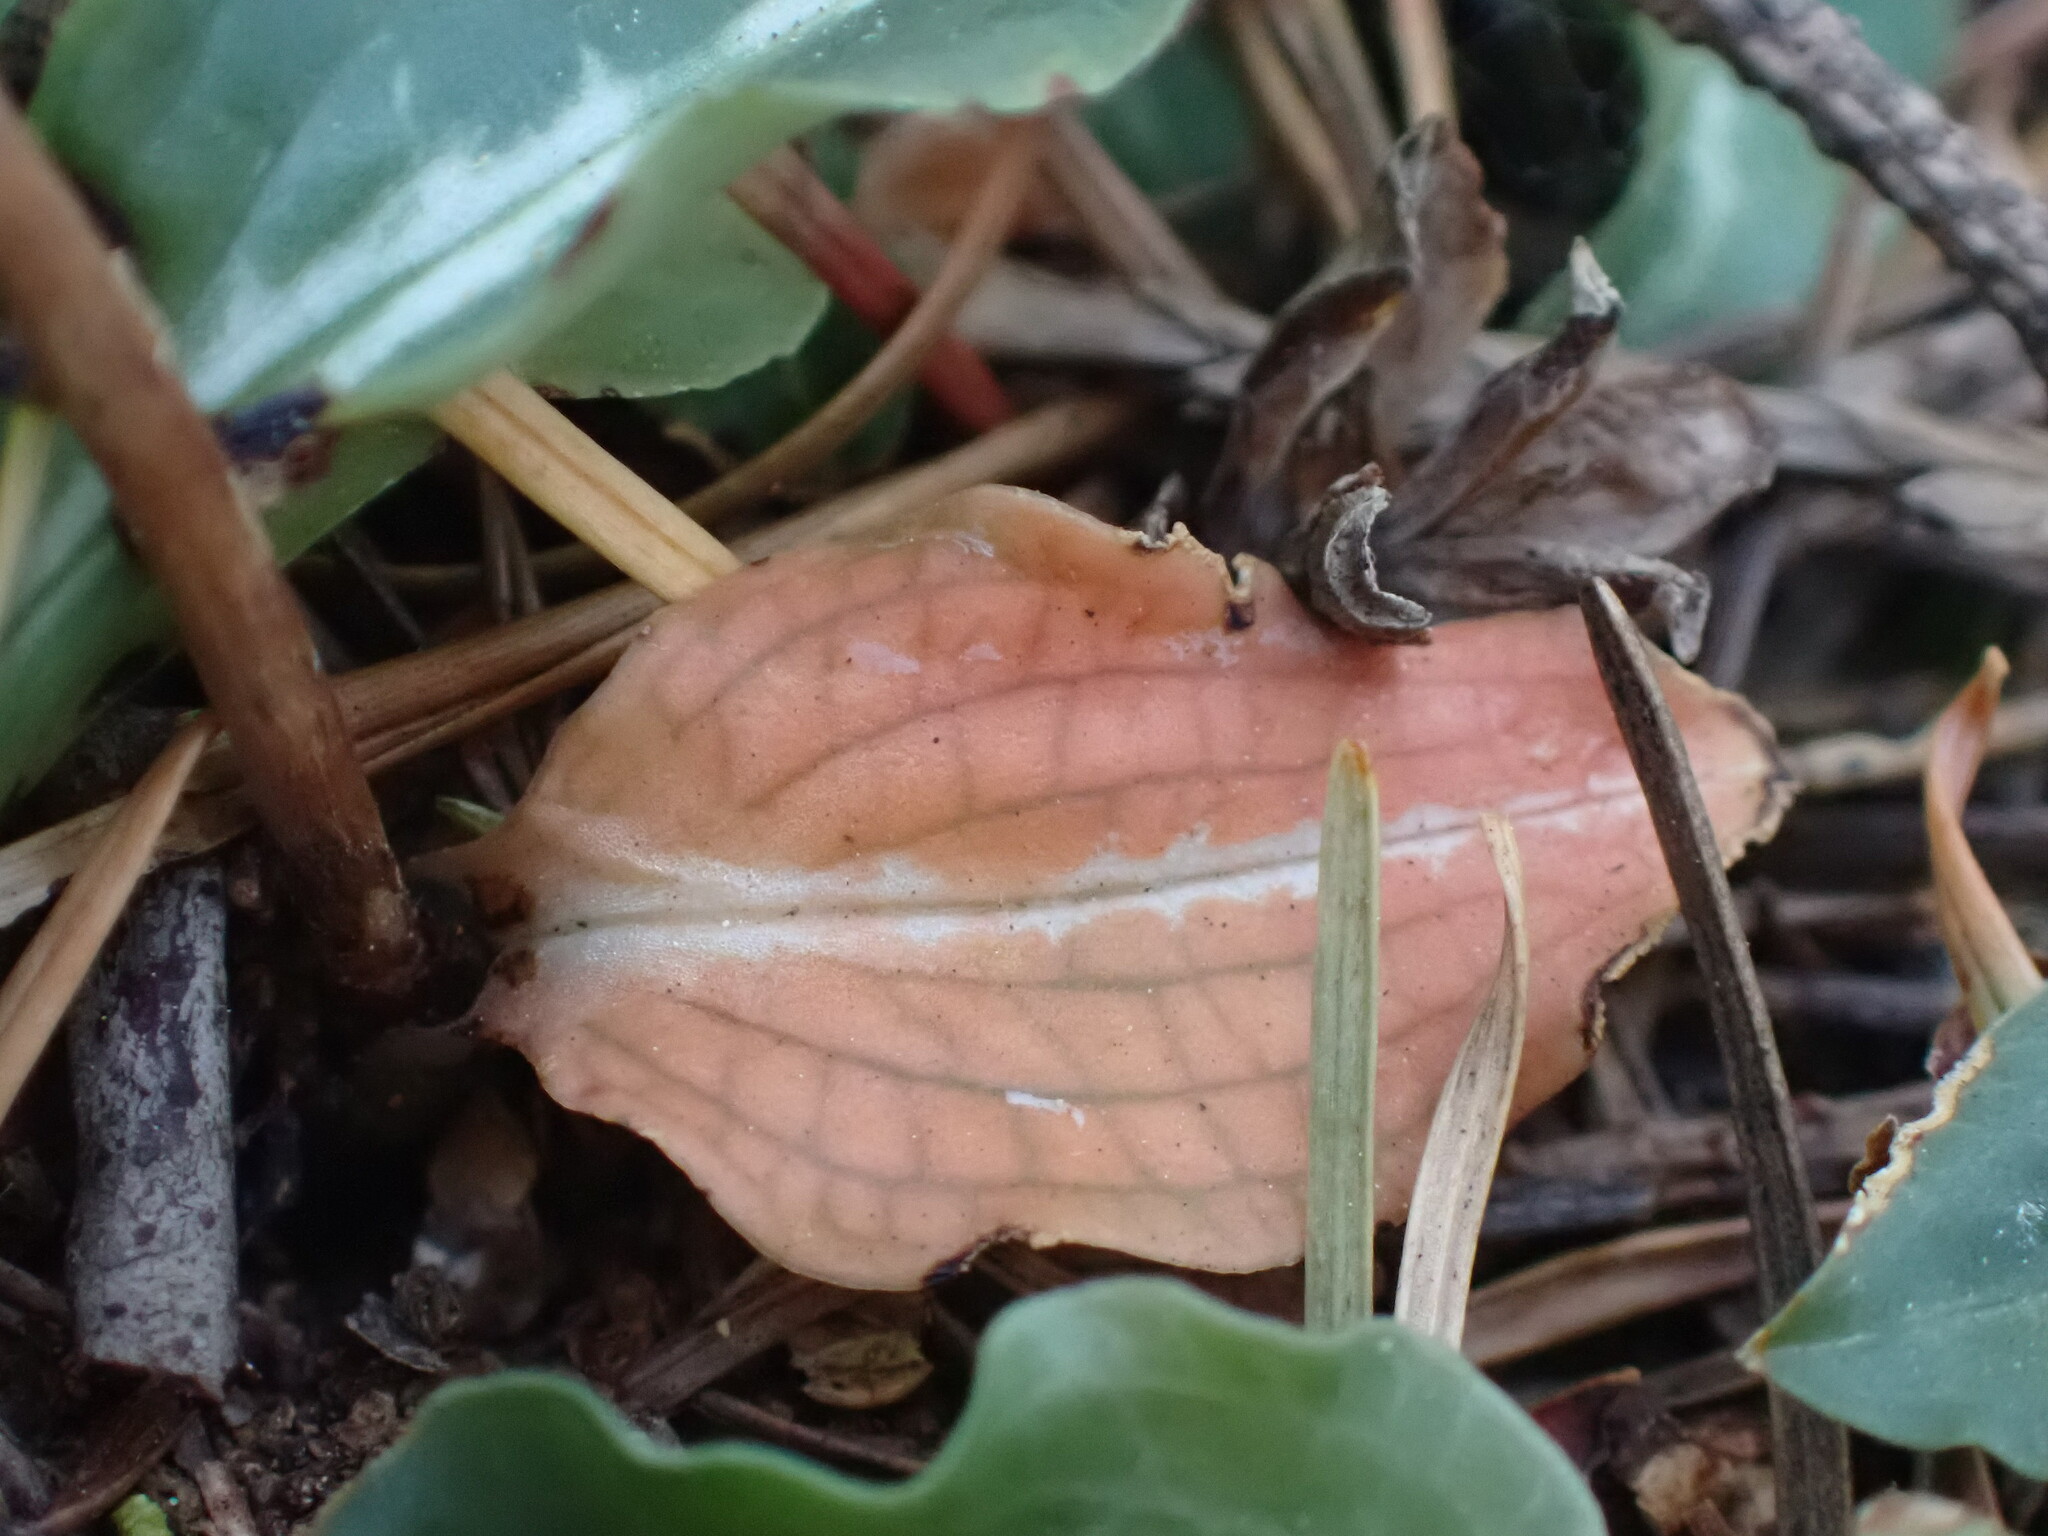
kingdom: Plantae
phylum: Tracheophyta
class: Liliopsida
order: Asparagales
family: Orchidaceae
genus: Goodyera
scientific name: Goodyera oblongifolia
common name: Giant rattlesnake-plantain
